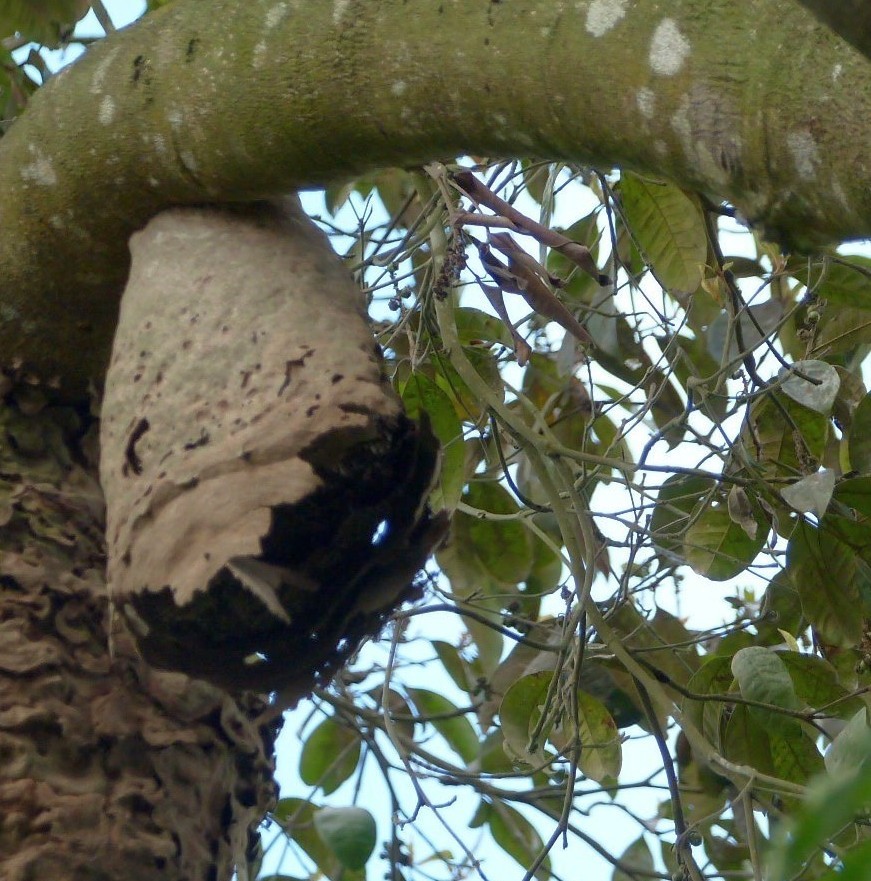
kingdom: Animalia
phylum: Arthropoda
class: Insecta
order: Hymenoptera
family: Eumenidae
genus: Polybia
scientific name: Polybia rejecta
